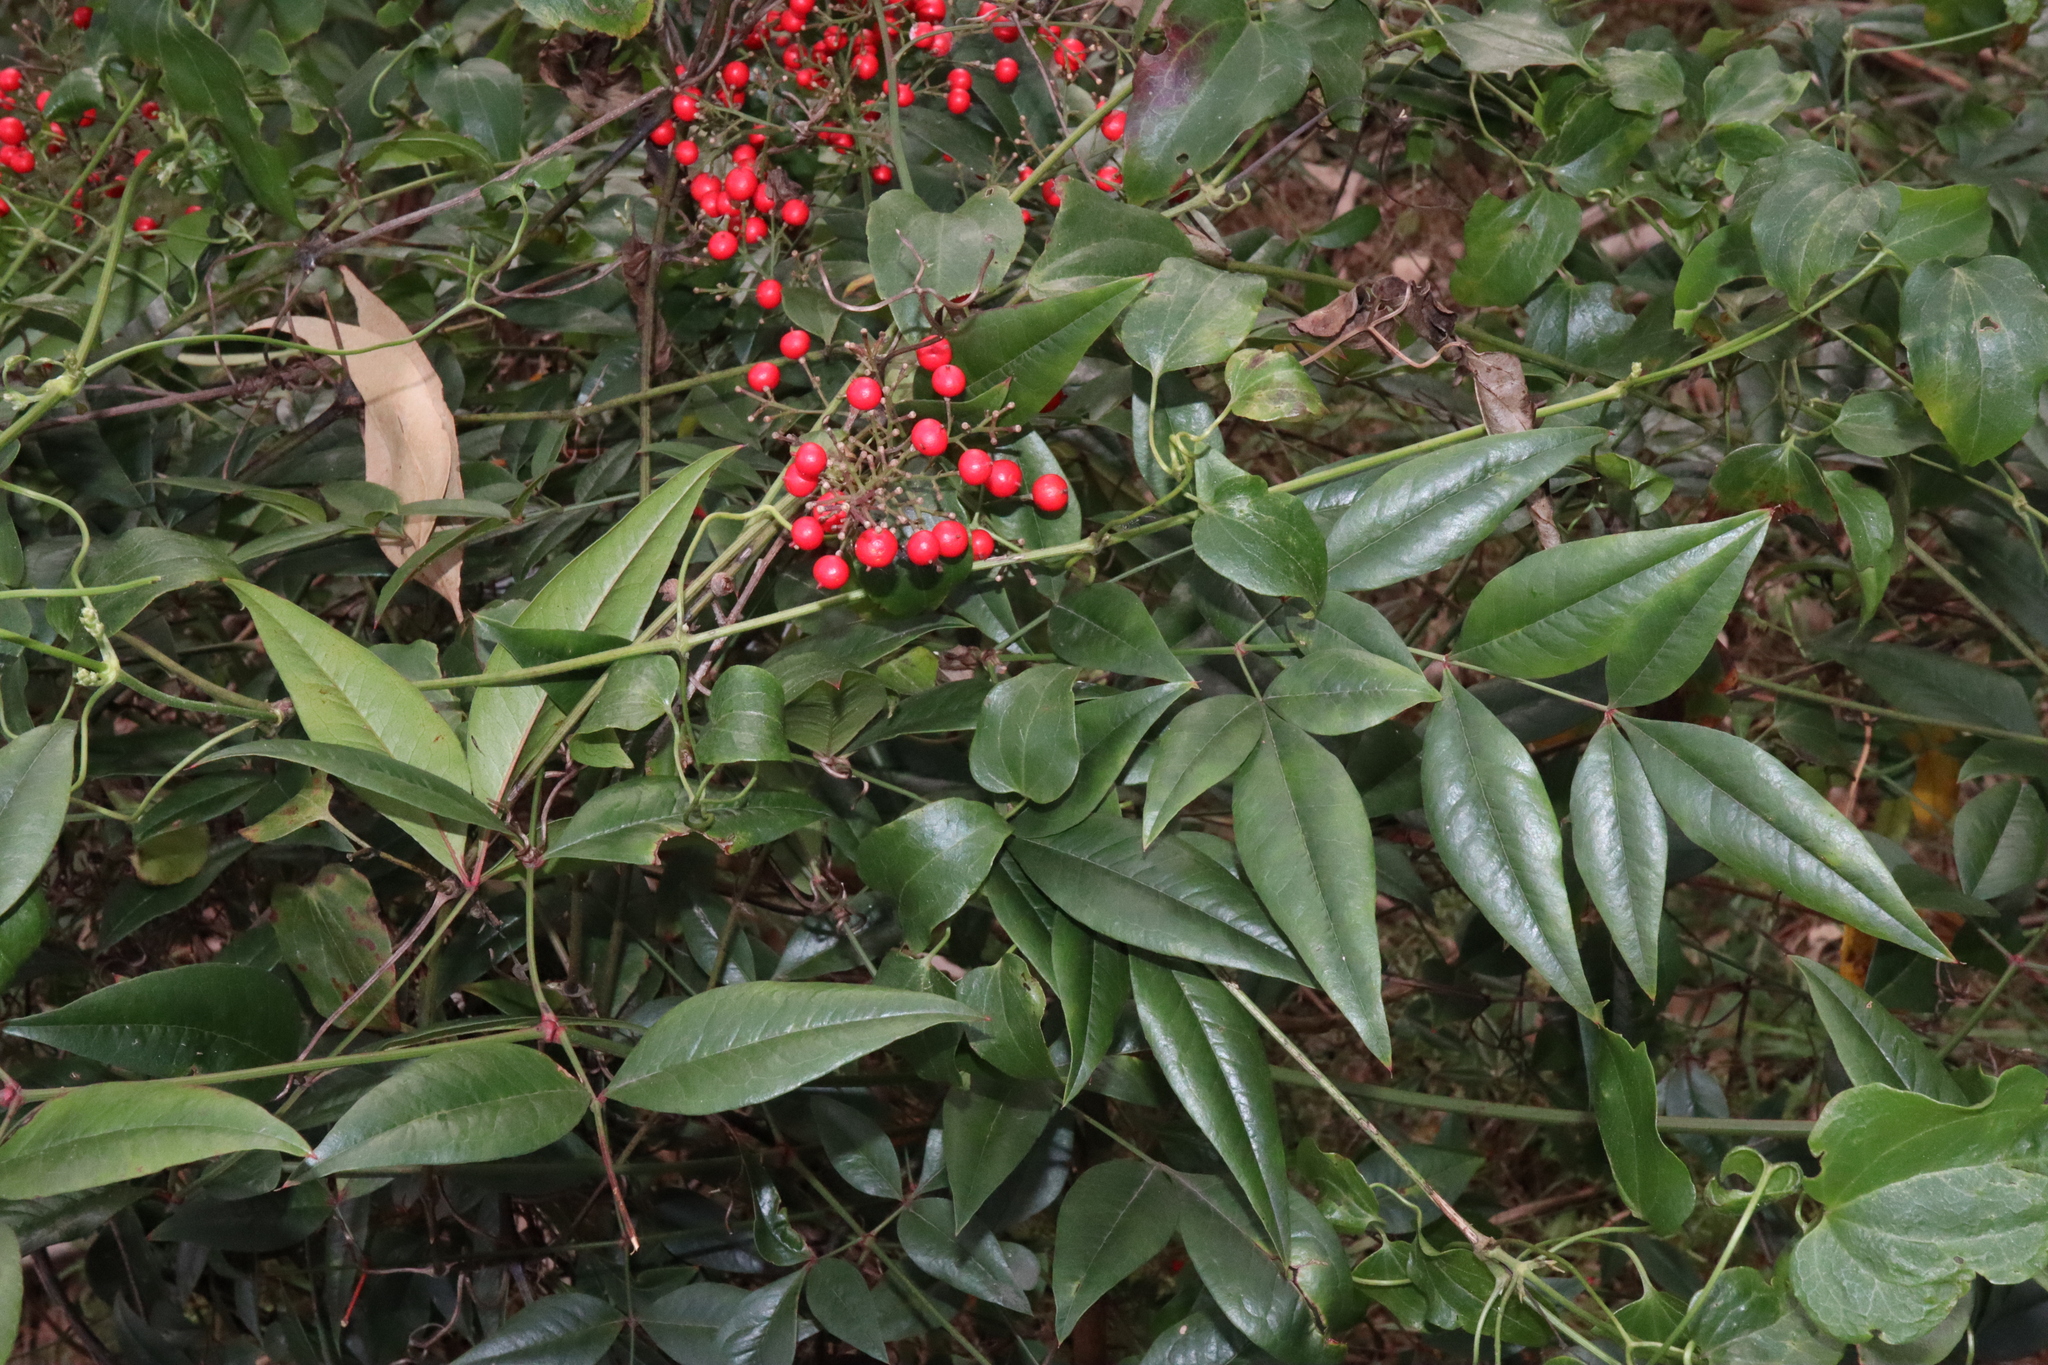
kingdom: Plantae
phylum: Tracheophyta
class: Magnoliopsida
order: Ranunculales
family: Berberidaceae
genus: Nandina
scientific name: Nandina domestica
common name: Sacred bamboo
